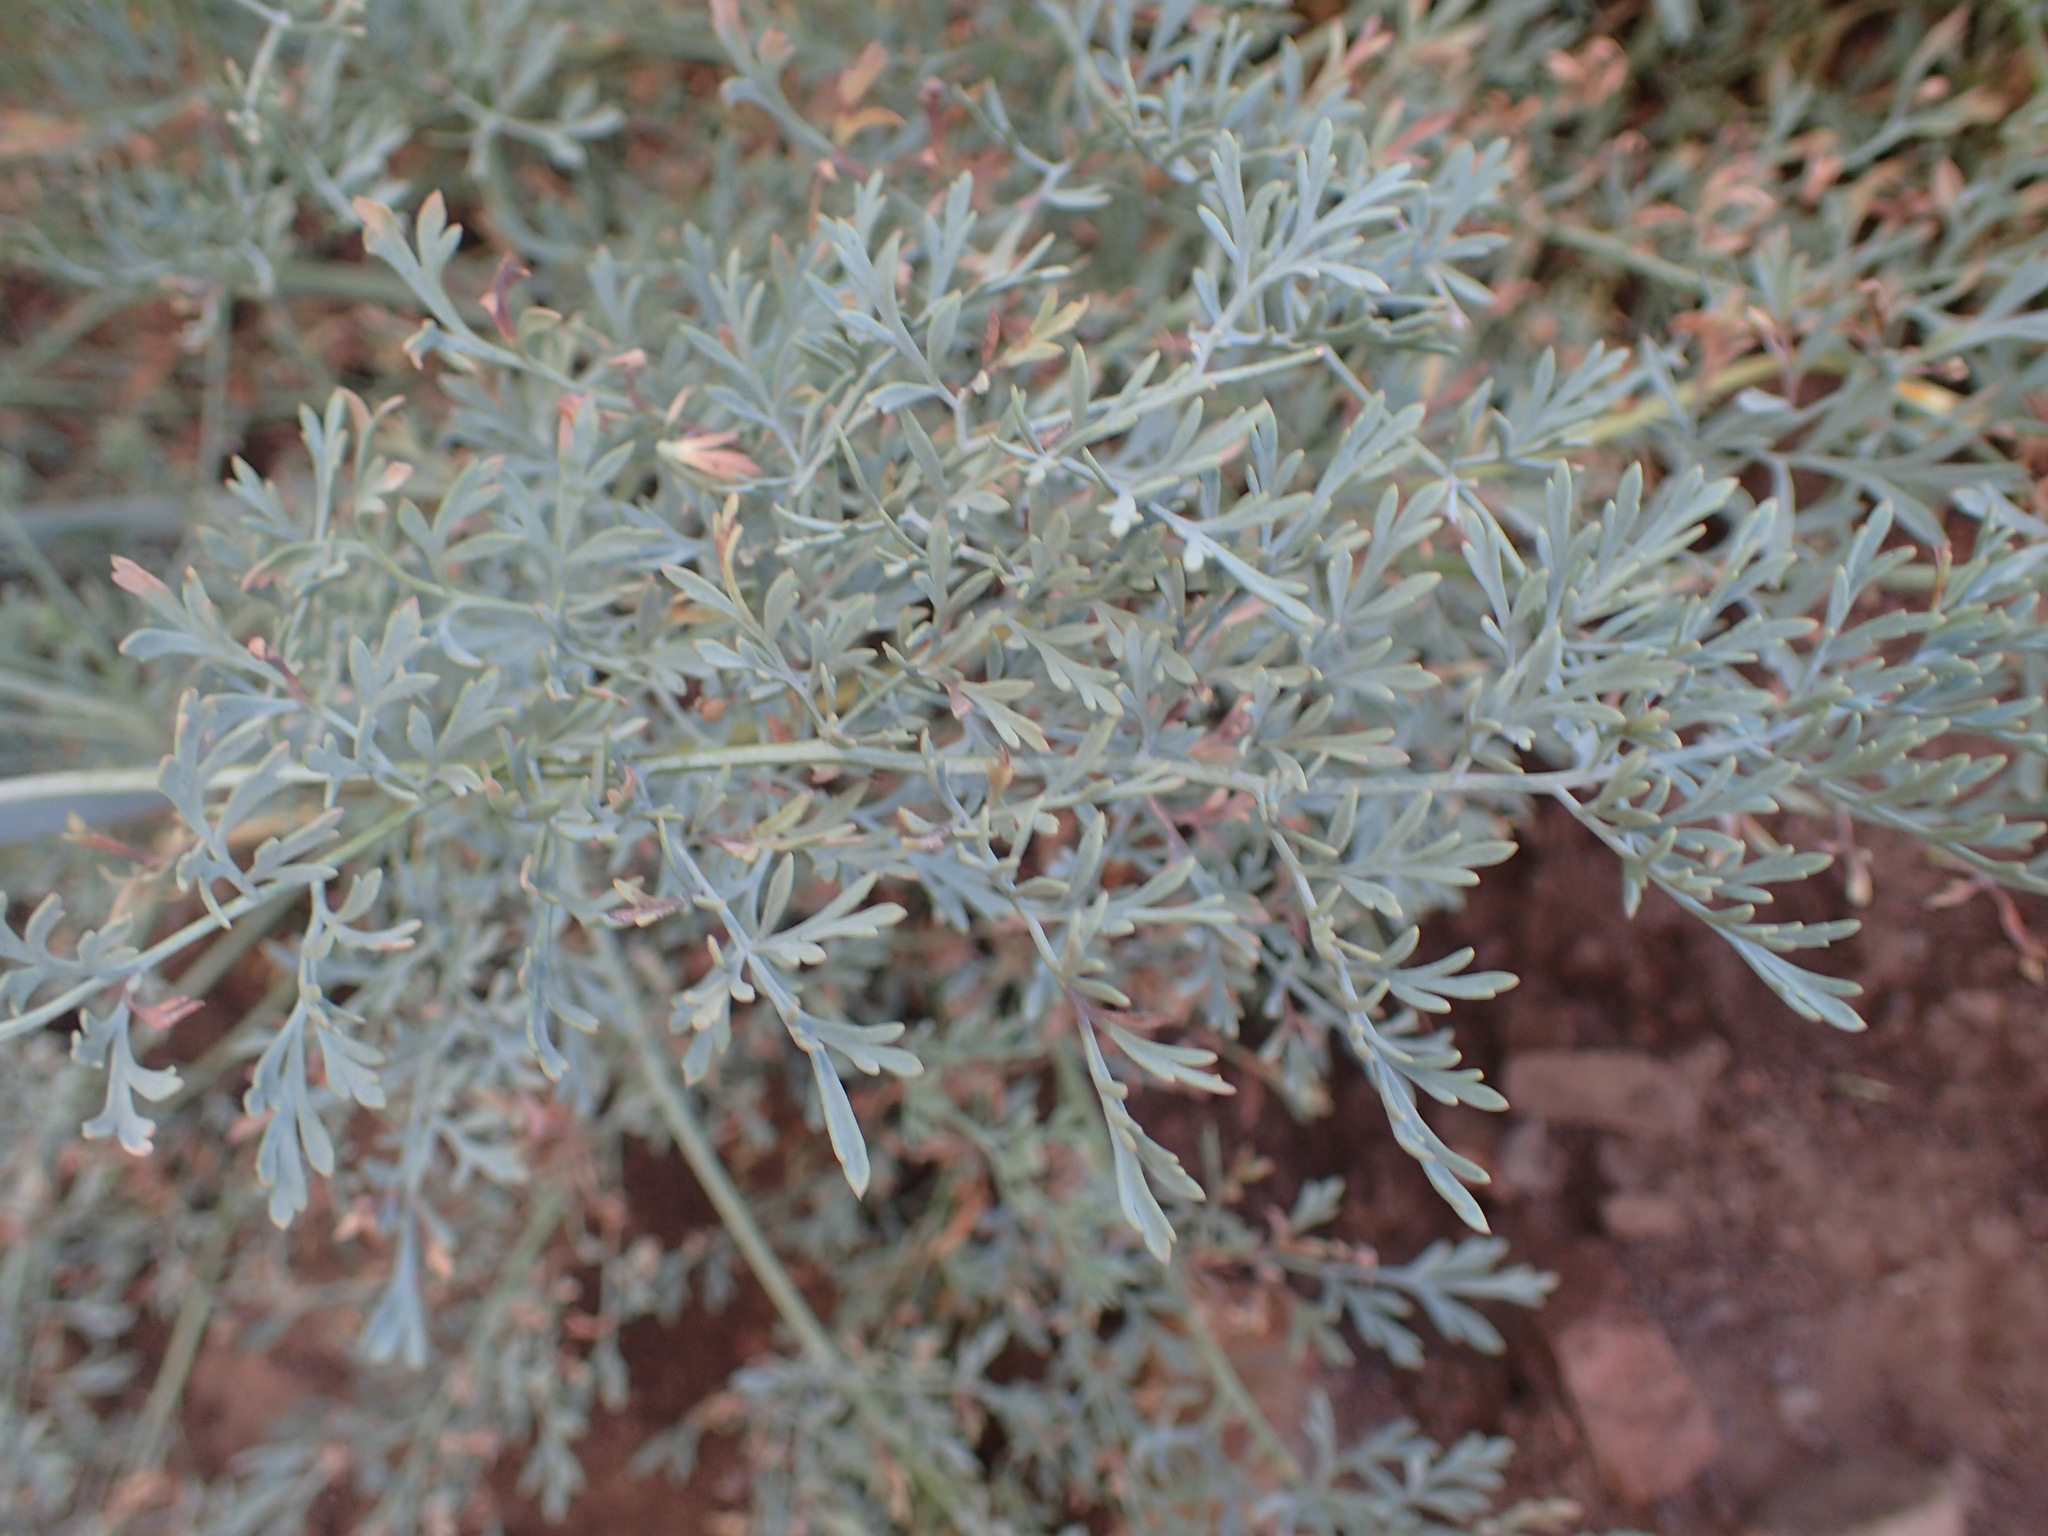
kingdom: Plantae
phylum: Tracheophyta
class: Magnoliopsida
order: Ranunculales
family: Papaveraceae
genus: Ehrendorferia
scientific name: Ehrendorferia chrysantha
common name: Golden eardrops
